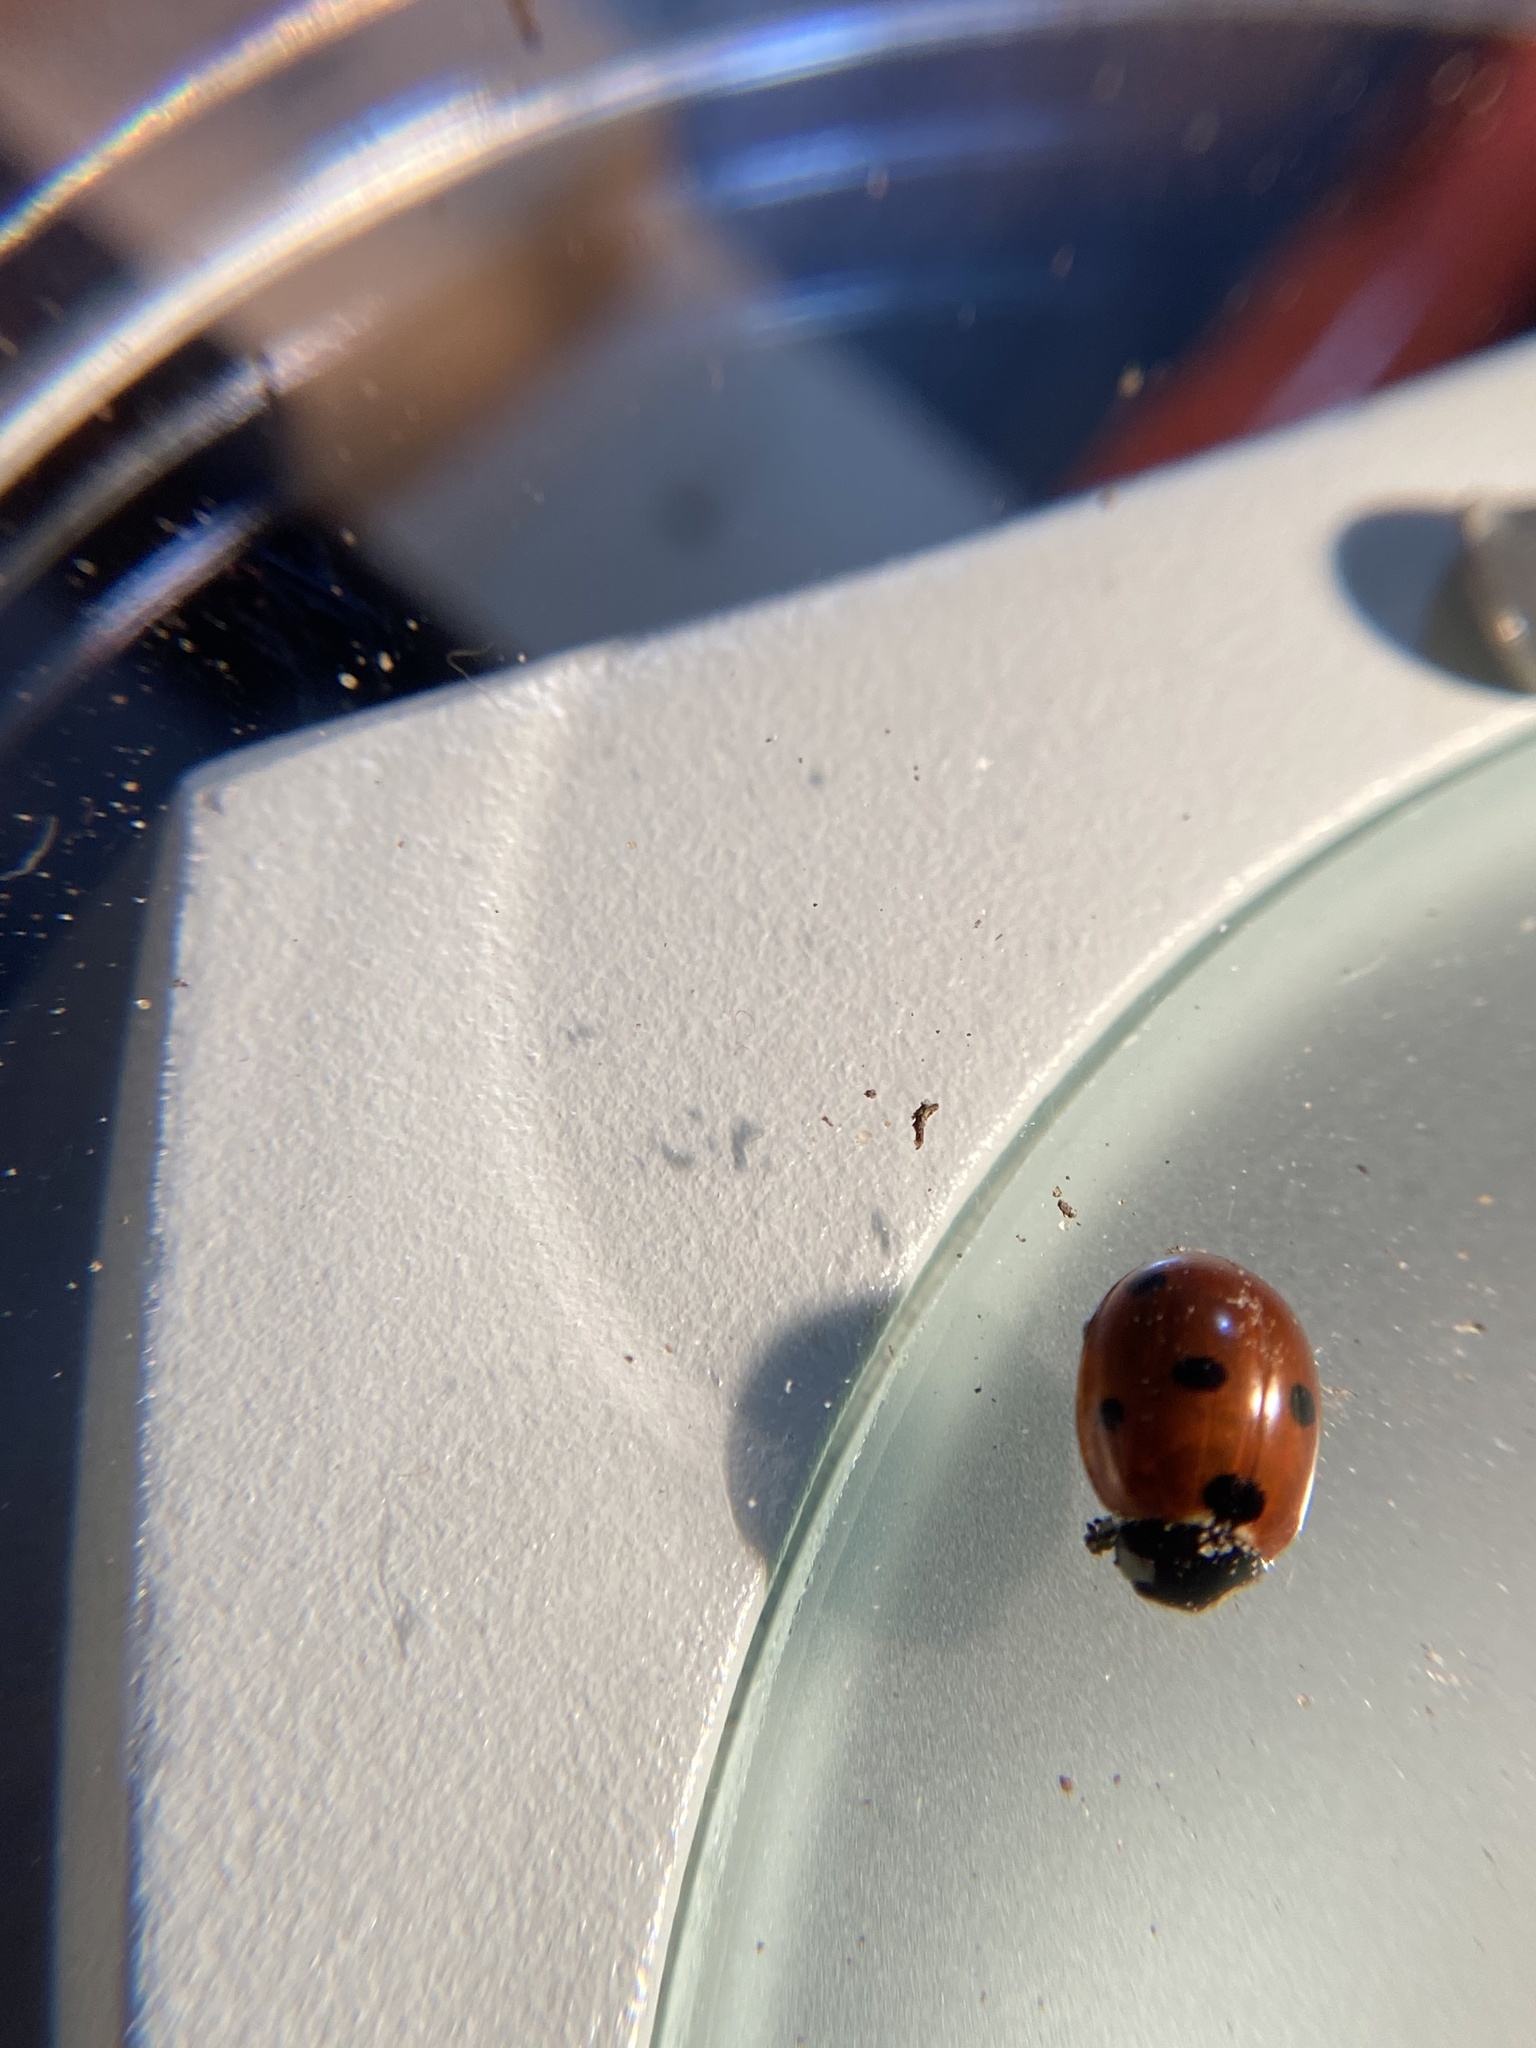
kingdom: Animalia
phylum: Arthropoda
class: Insecta
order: Coleoptera
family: Coccinellidae
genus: Coccinella
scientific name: Coccinella septempunctata
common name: Sevenspotted lady beetle
